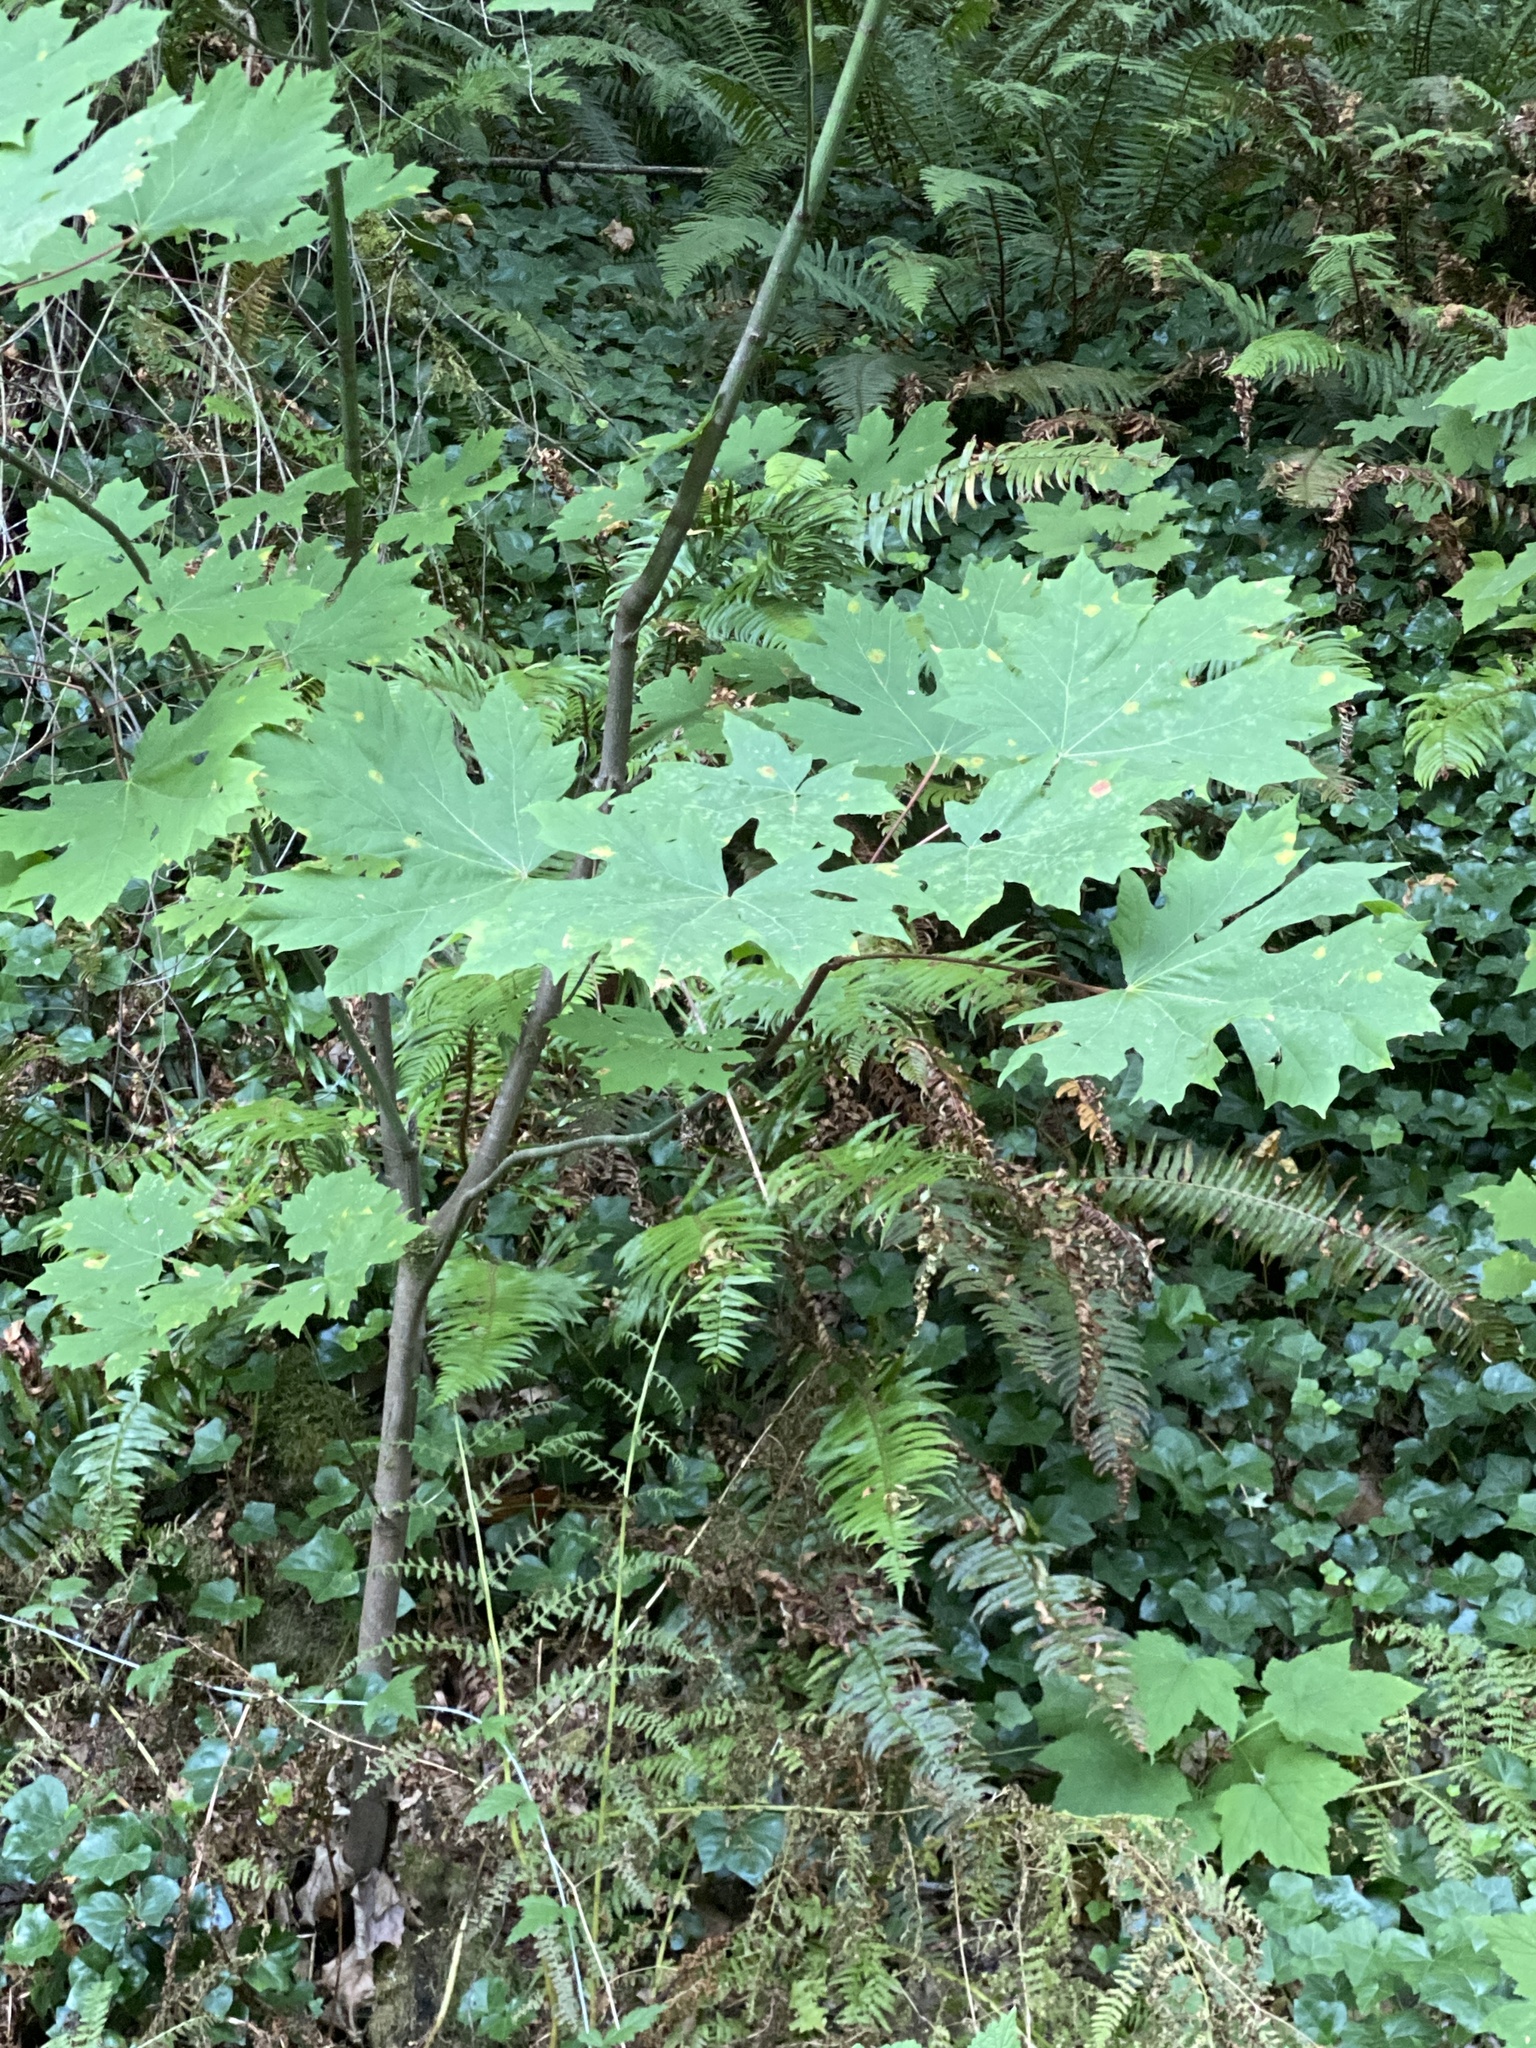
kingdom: Plantae
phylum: Tracheophyta
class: Magnoliopsida
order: Sapindales
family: Sapindaceae
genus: Acer
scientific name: Acer macrophyllum
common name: Oregon maple
